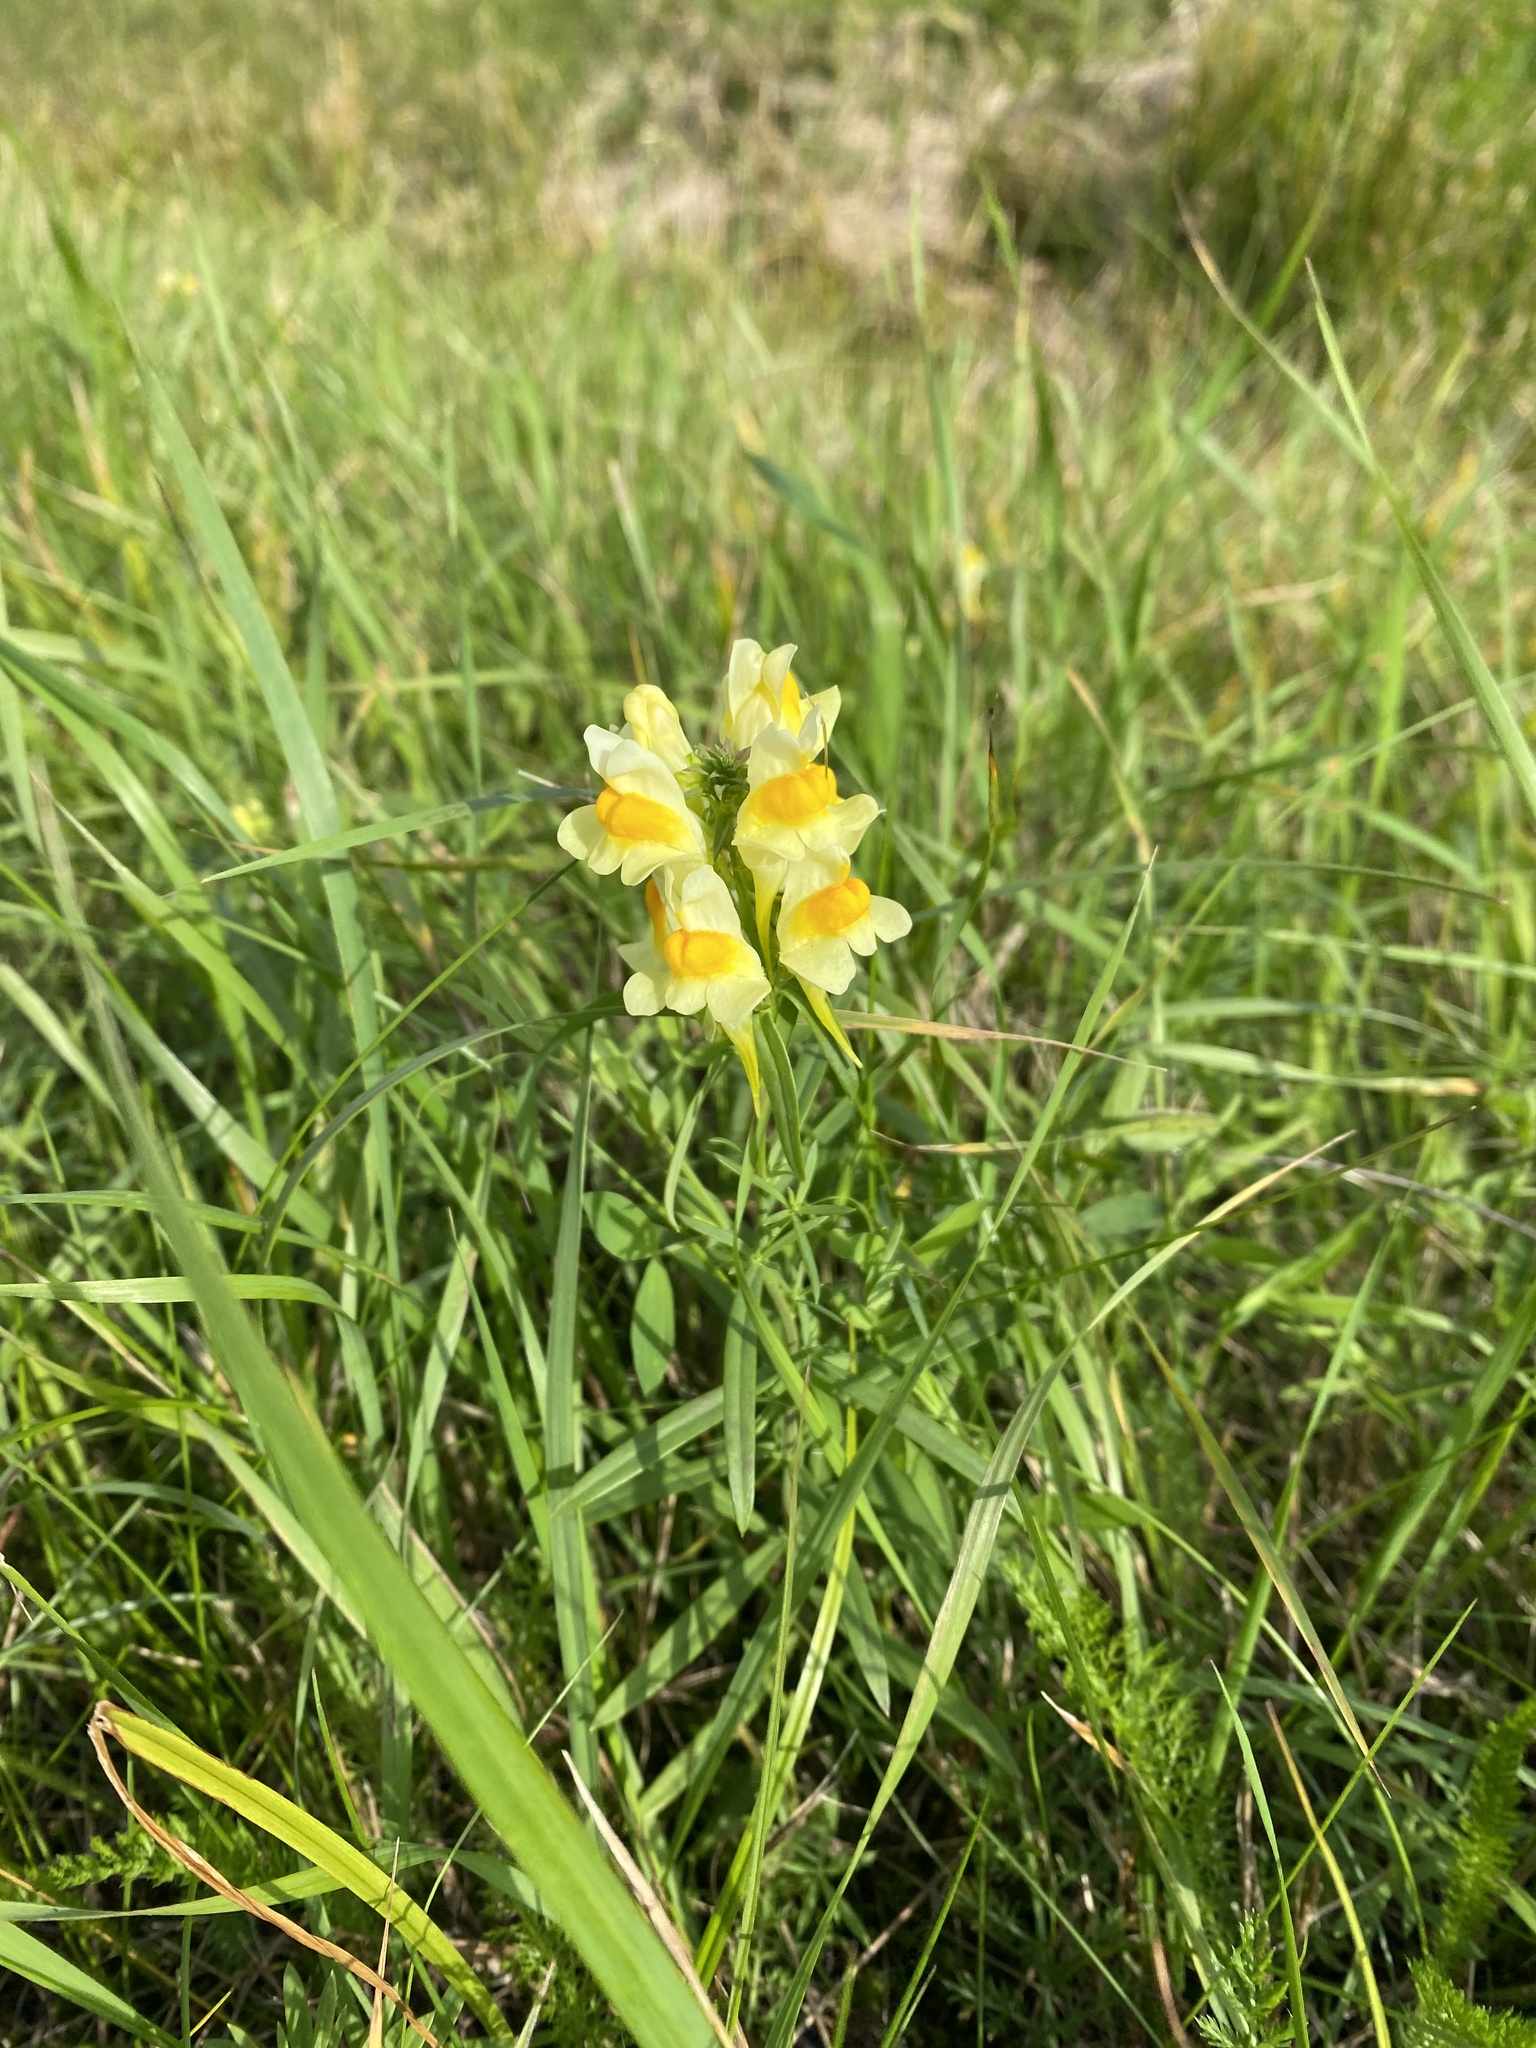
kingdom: Plantae
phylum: Tracheophyta
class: Magnoliopsida
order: Lamiales
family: Plantaginaceae
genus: Linaria
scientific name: Linaria vulgaris
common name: Butter and eggs
